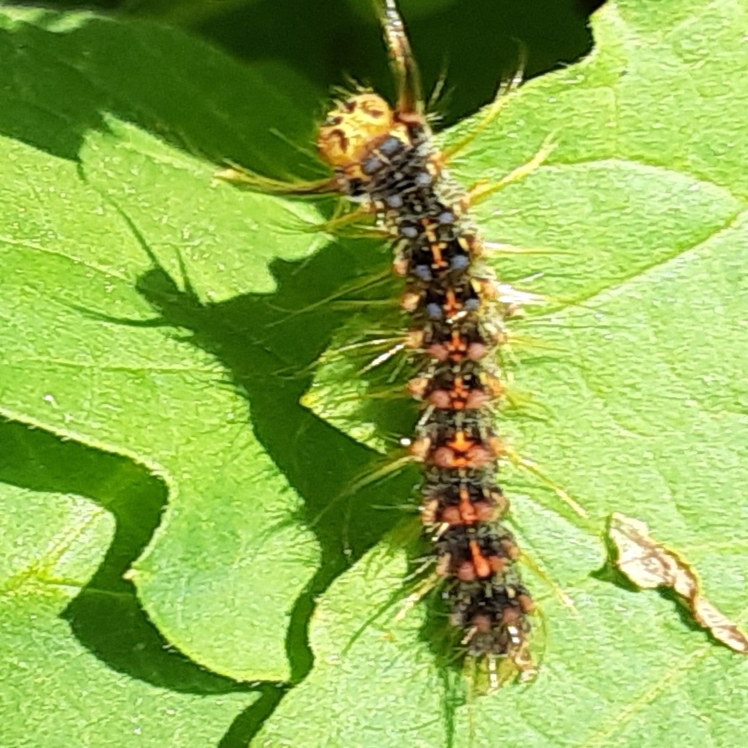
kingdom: Animalia
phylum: Arthropoda
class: Insecta
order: Lepidoptera
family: Erebidae
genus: Lymantria
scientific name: Lymantria dispar
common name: Gypsy moth
